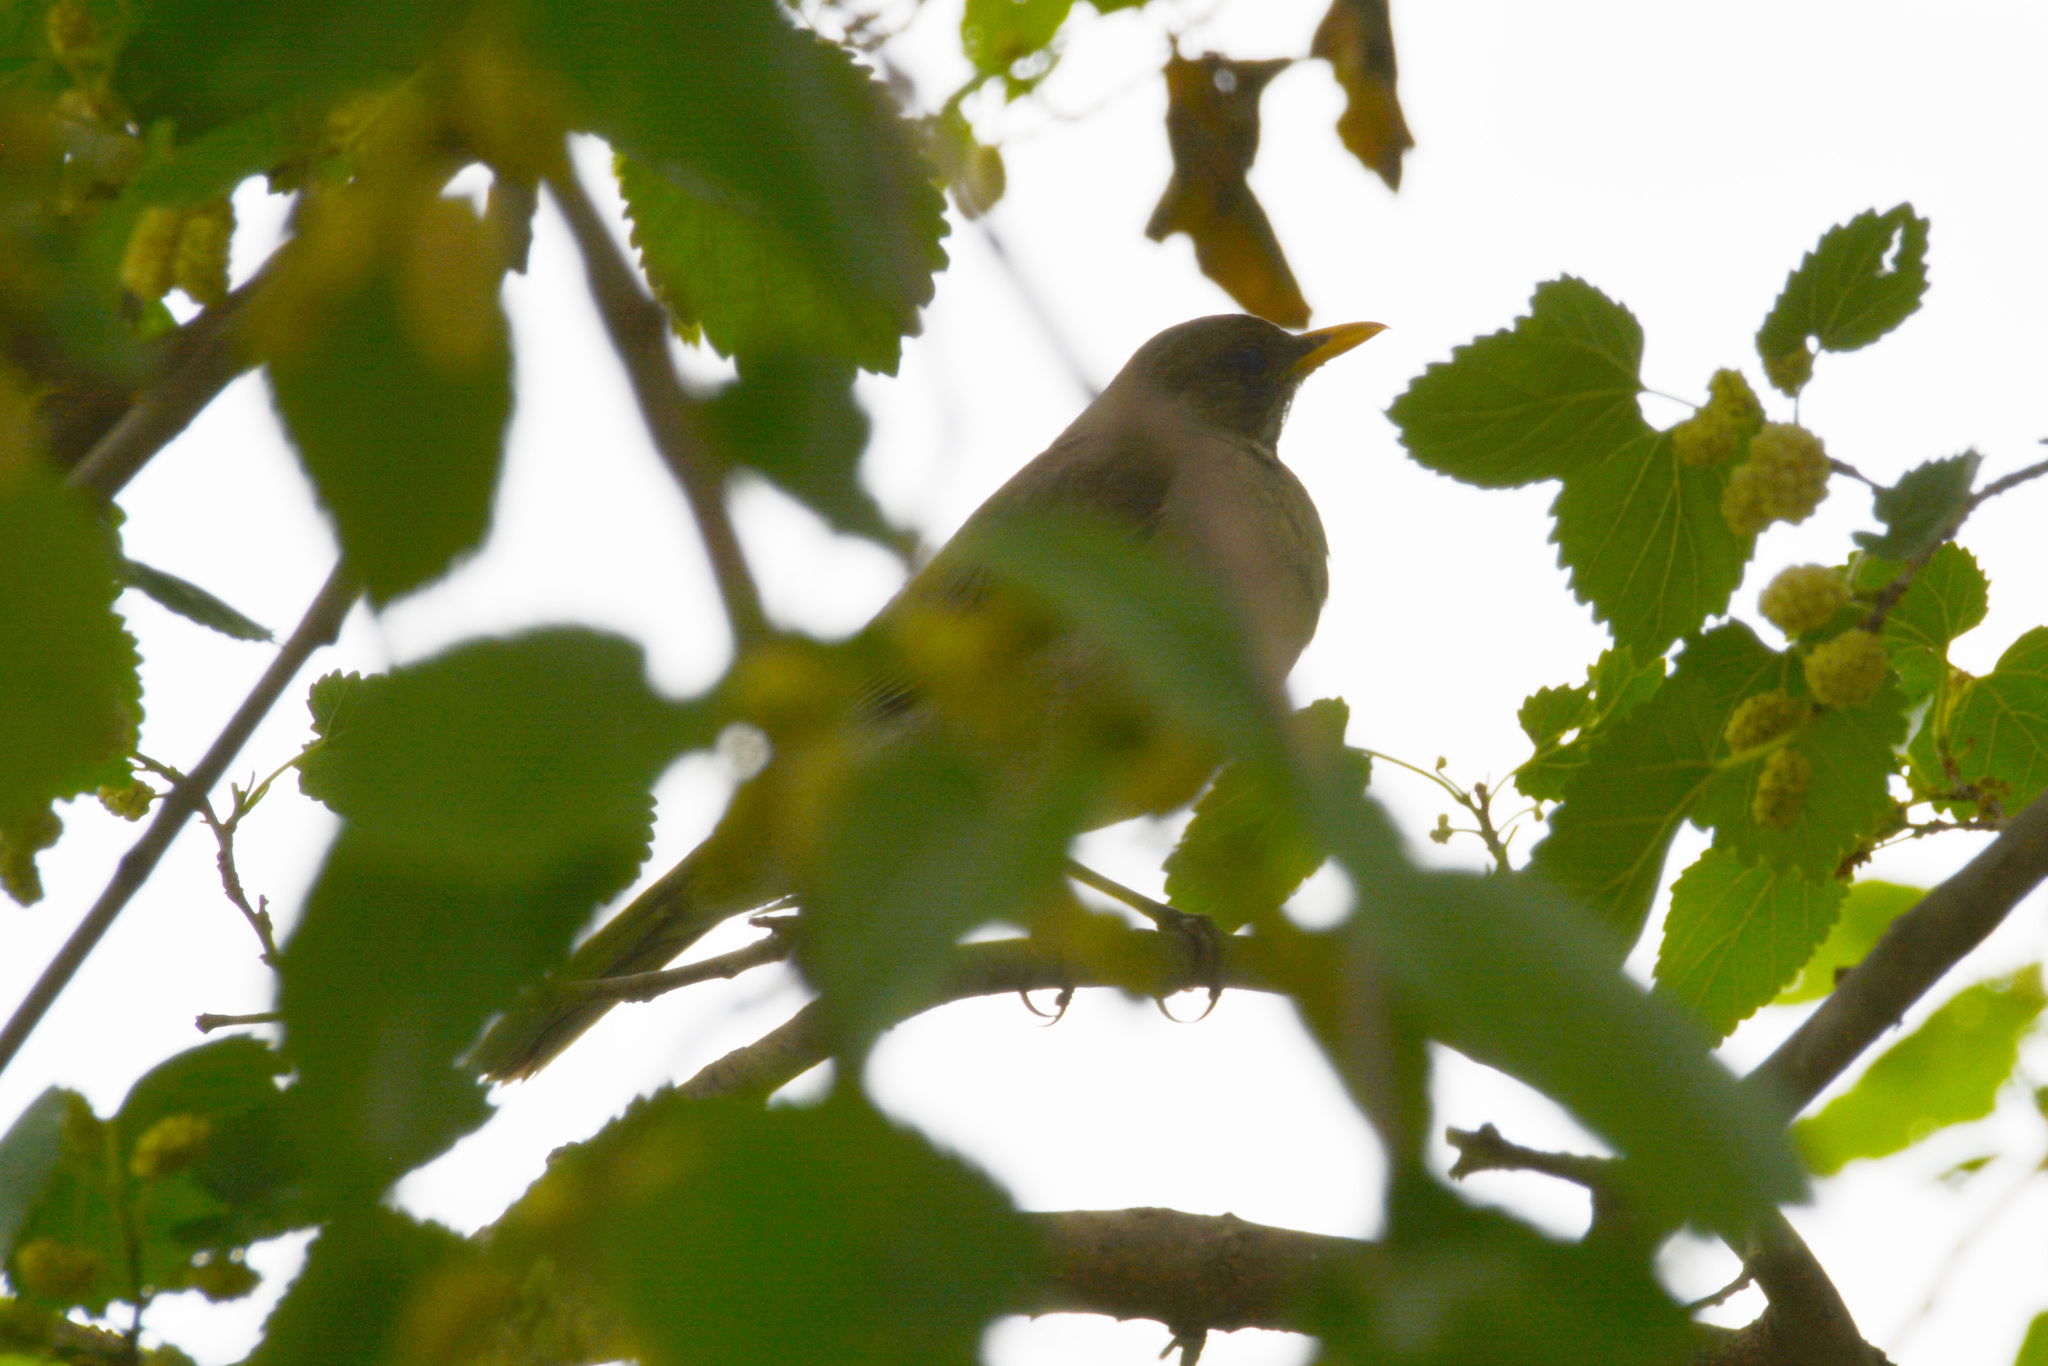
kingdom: Animalia
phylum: Chordata
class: Aves
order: Passeriformes
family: Turdidae
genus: Turdus
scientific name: Turdus amaurochalinus
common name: Creamy-bellied thrush
